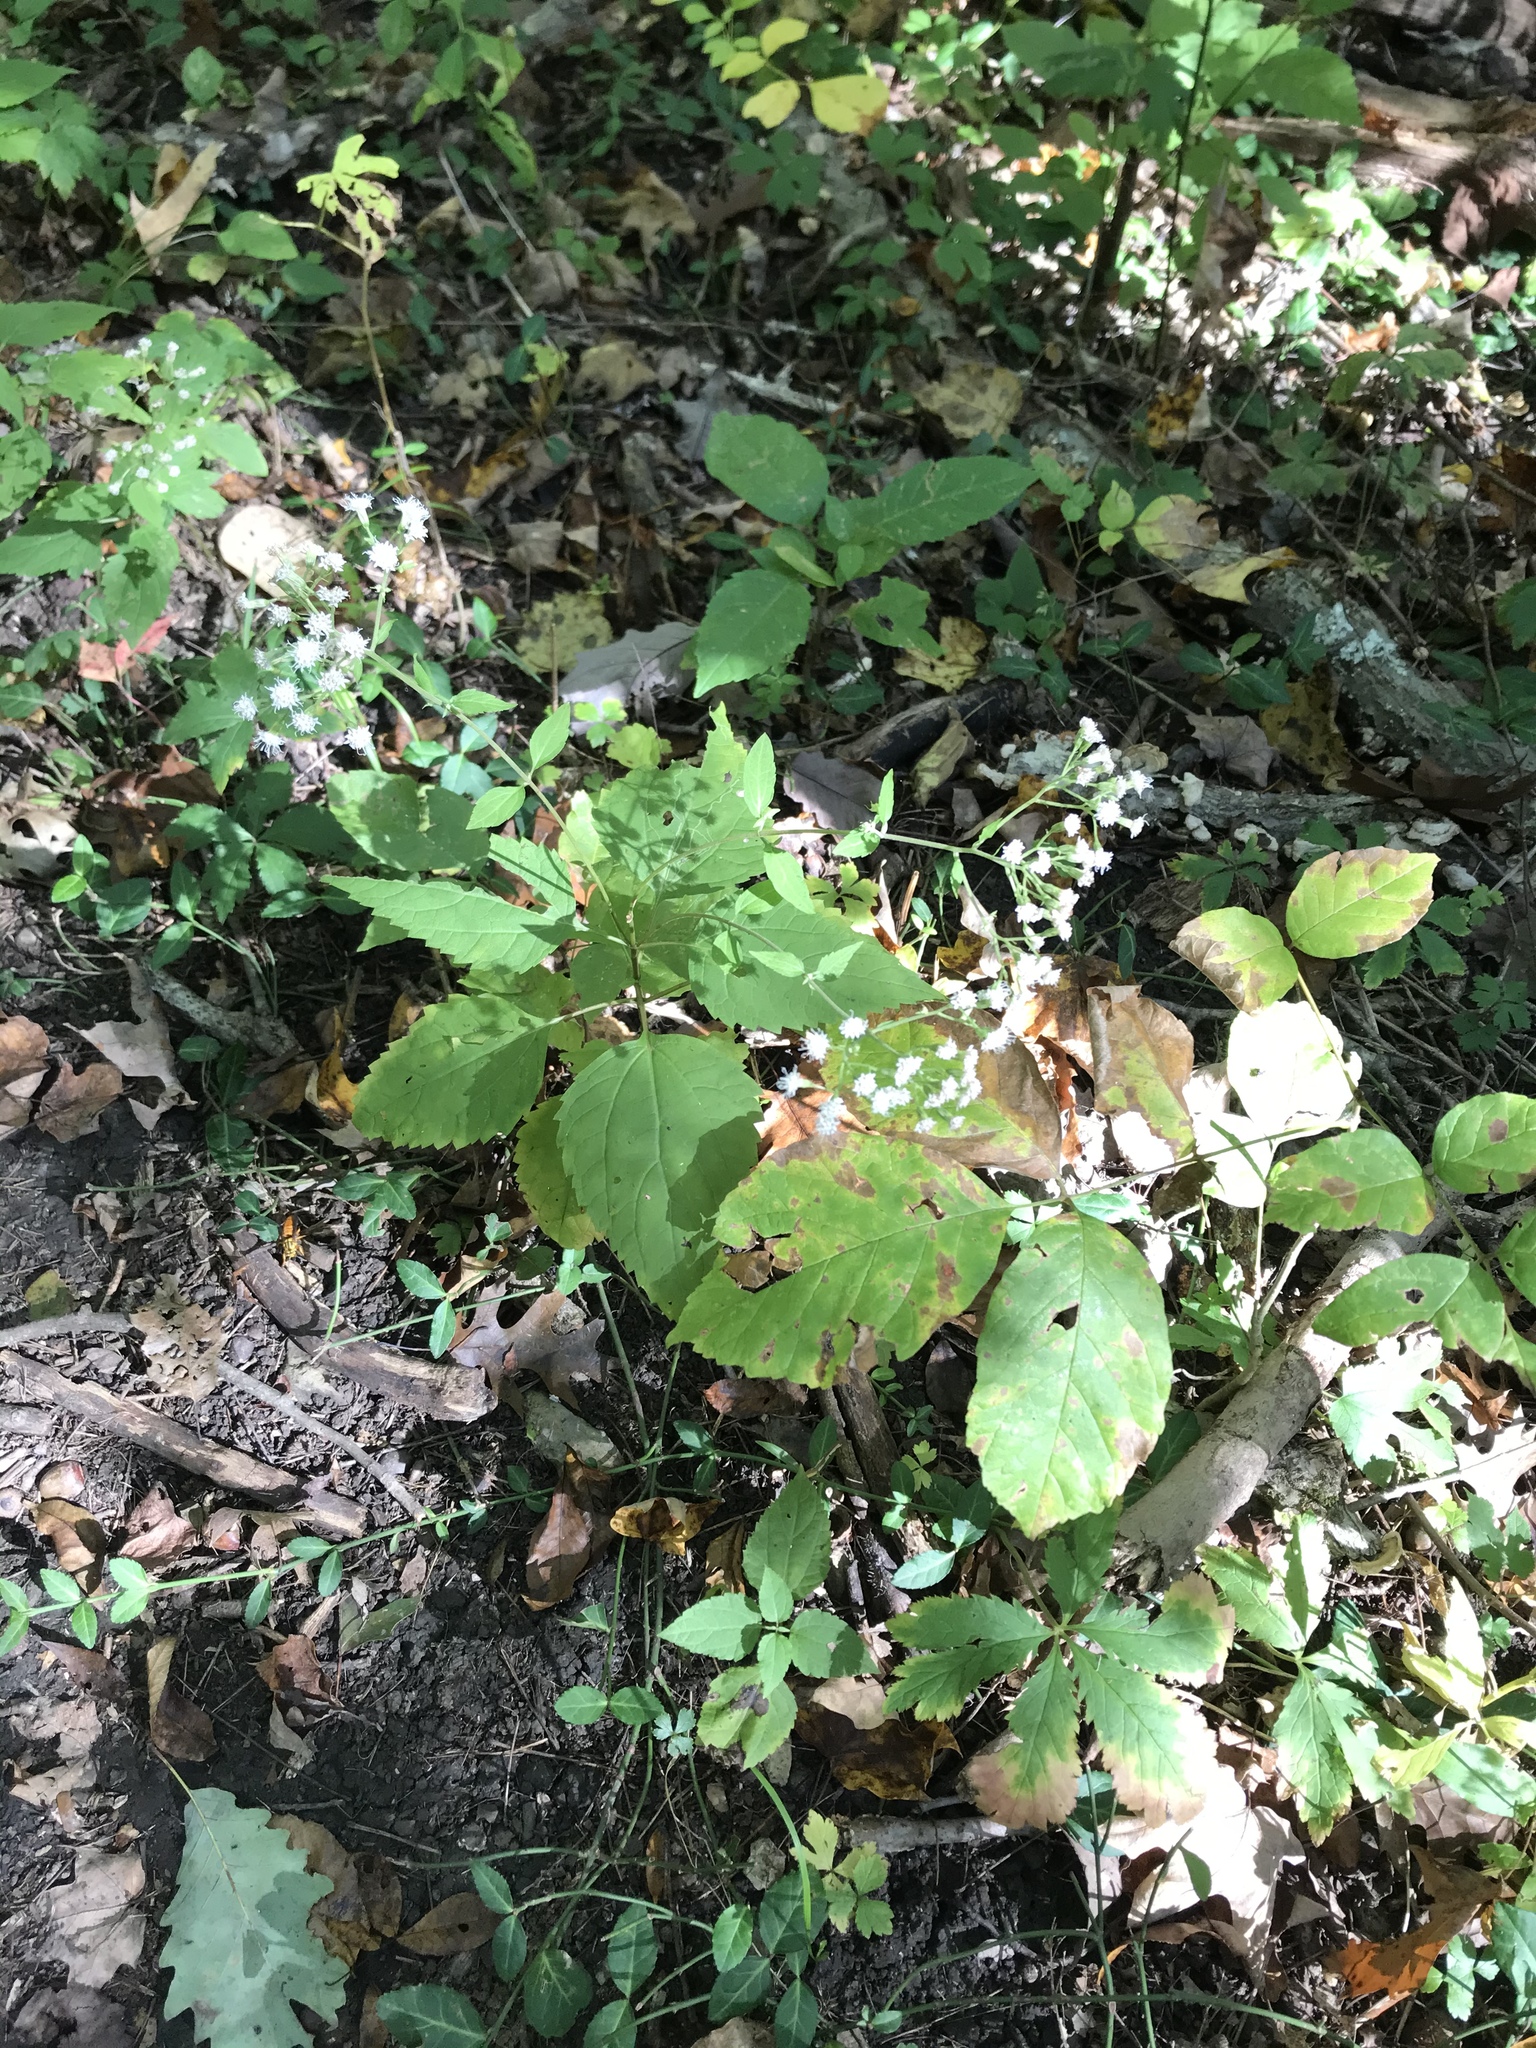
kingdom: Plantae
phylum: Tracheophyta
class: Magnoliopsida
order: Asterales
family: Asteraceae
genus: Ageratina
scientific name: Ageratina altissima
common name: White snakeroot
